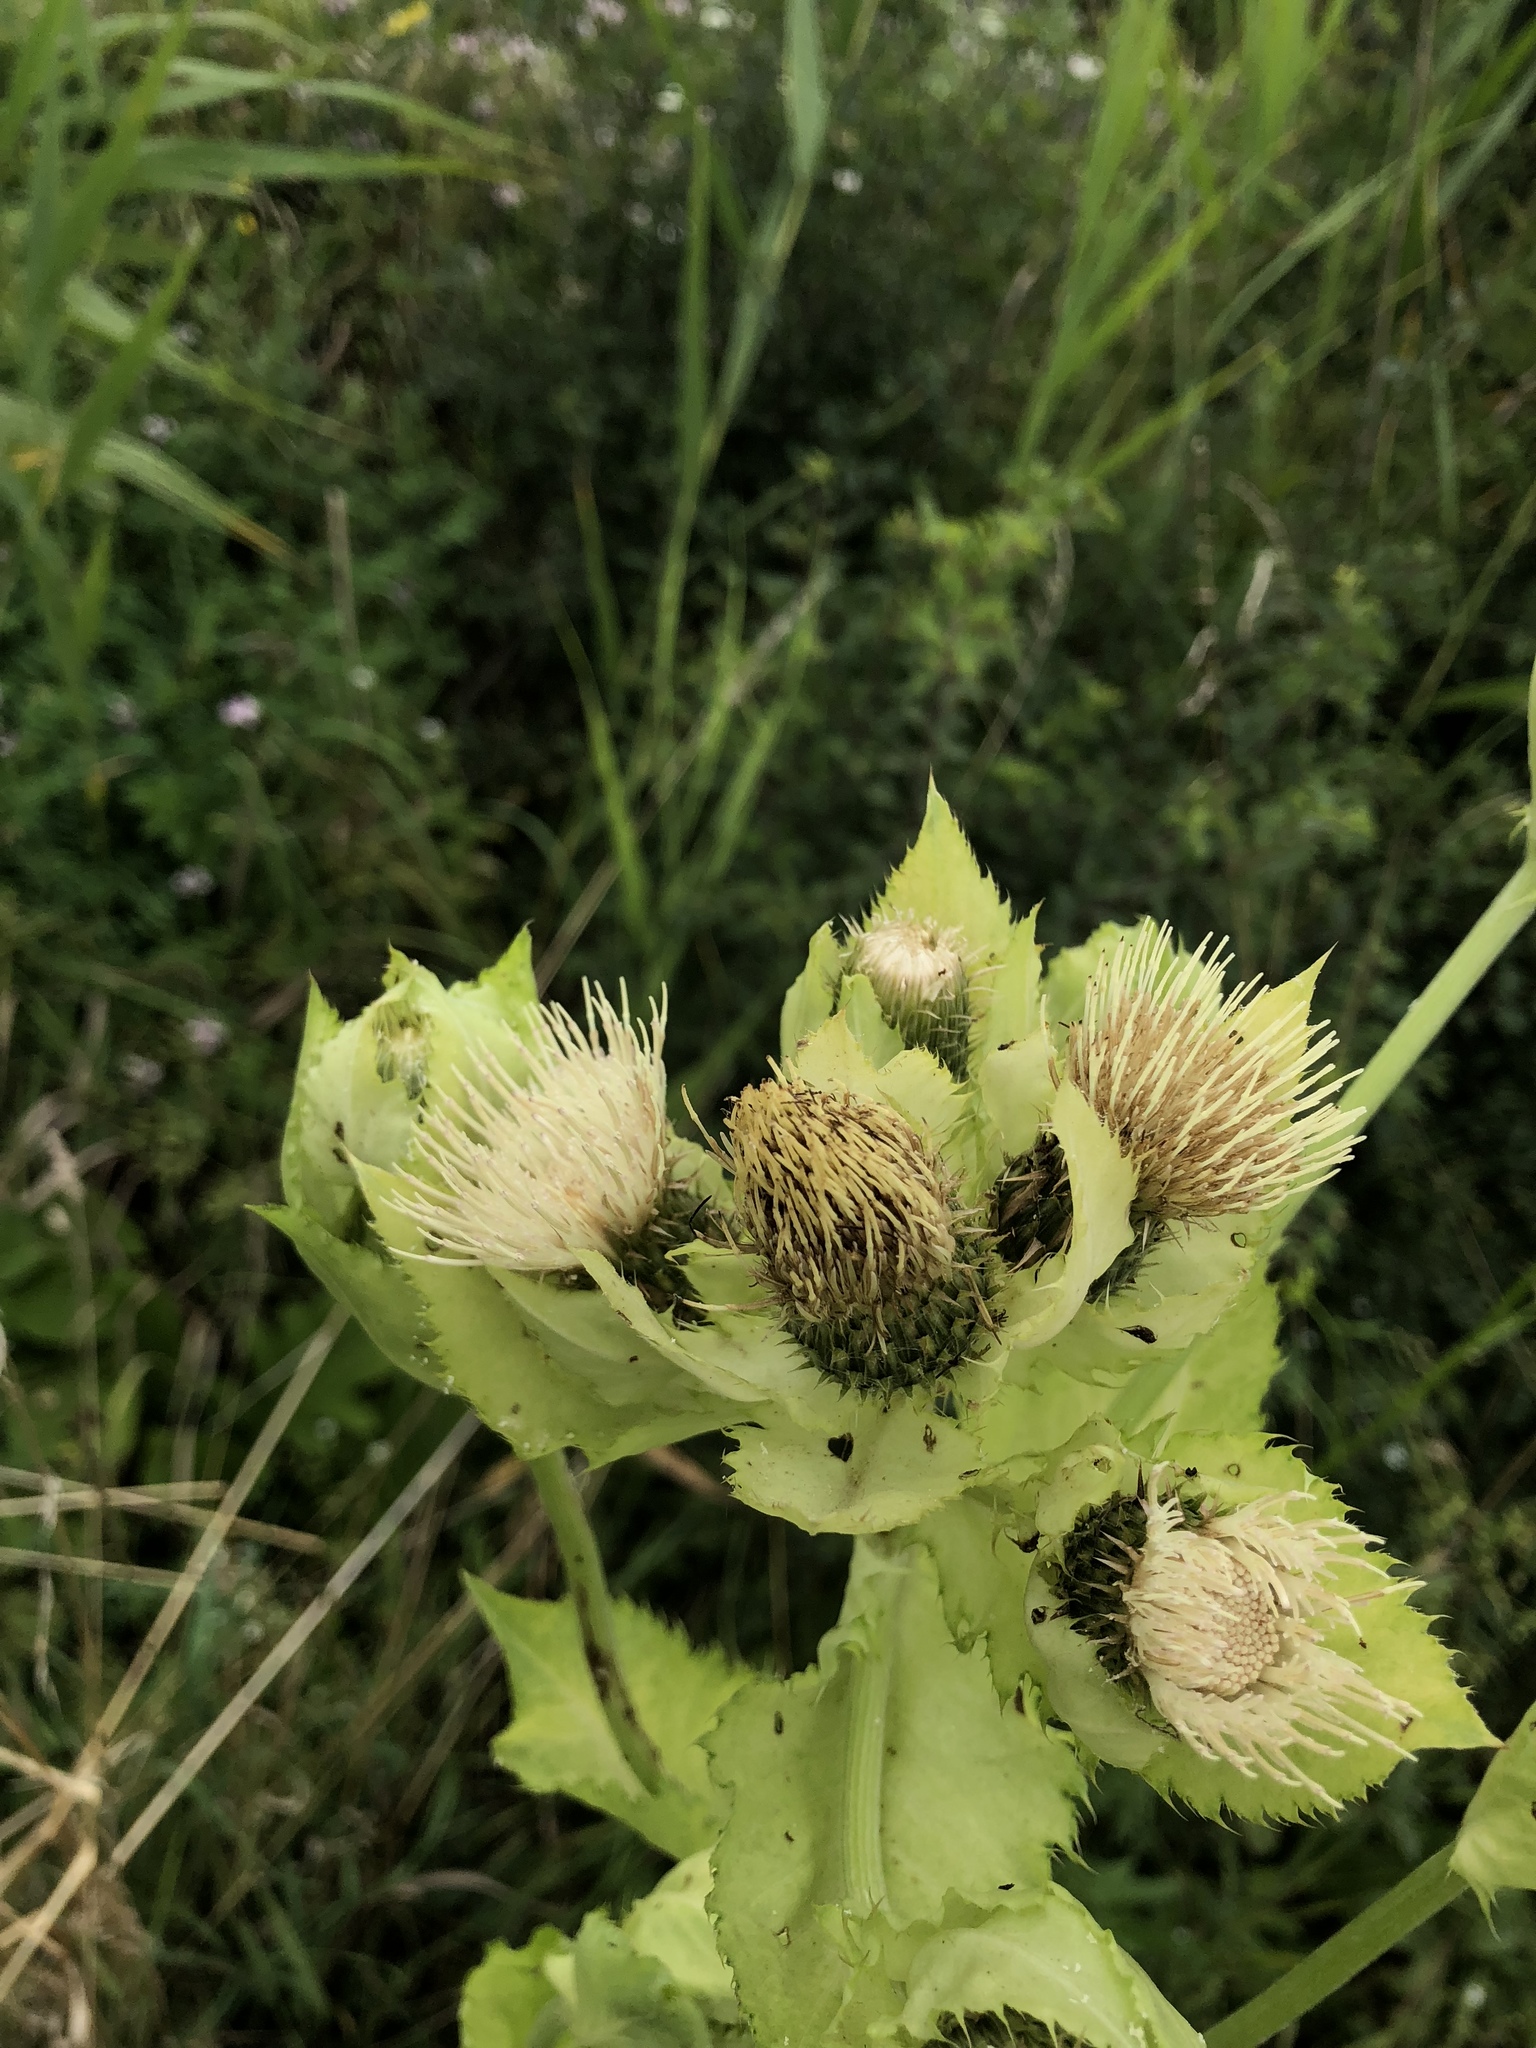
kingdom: Plantae
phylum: Tracheophyta
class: Magnoliopsida
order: Asterales
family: Asteraceae
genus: Cirsium
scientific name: Cirsium oleraceum
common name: Cabbage thistle
